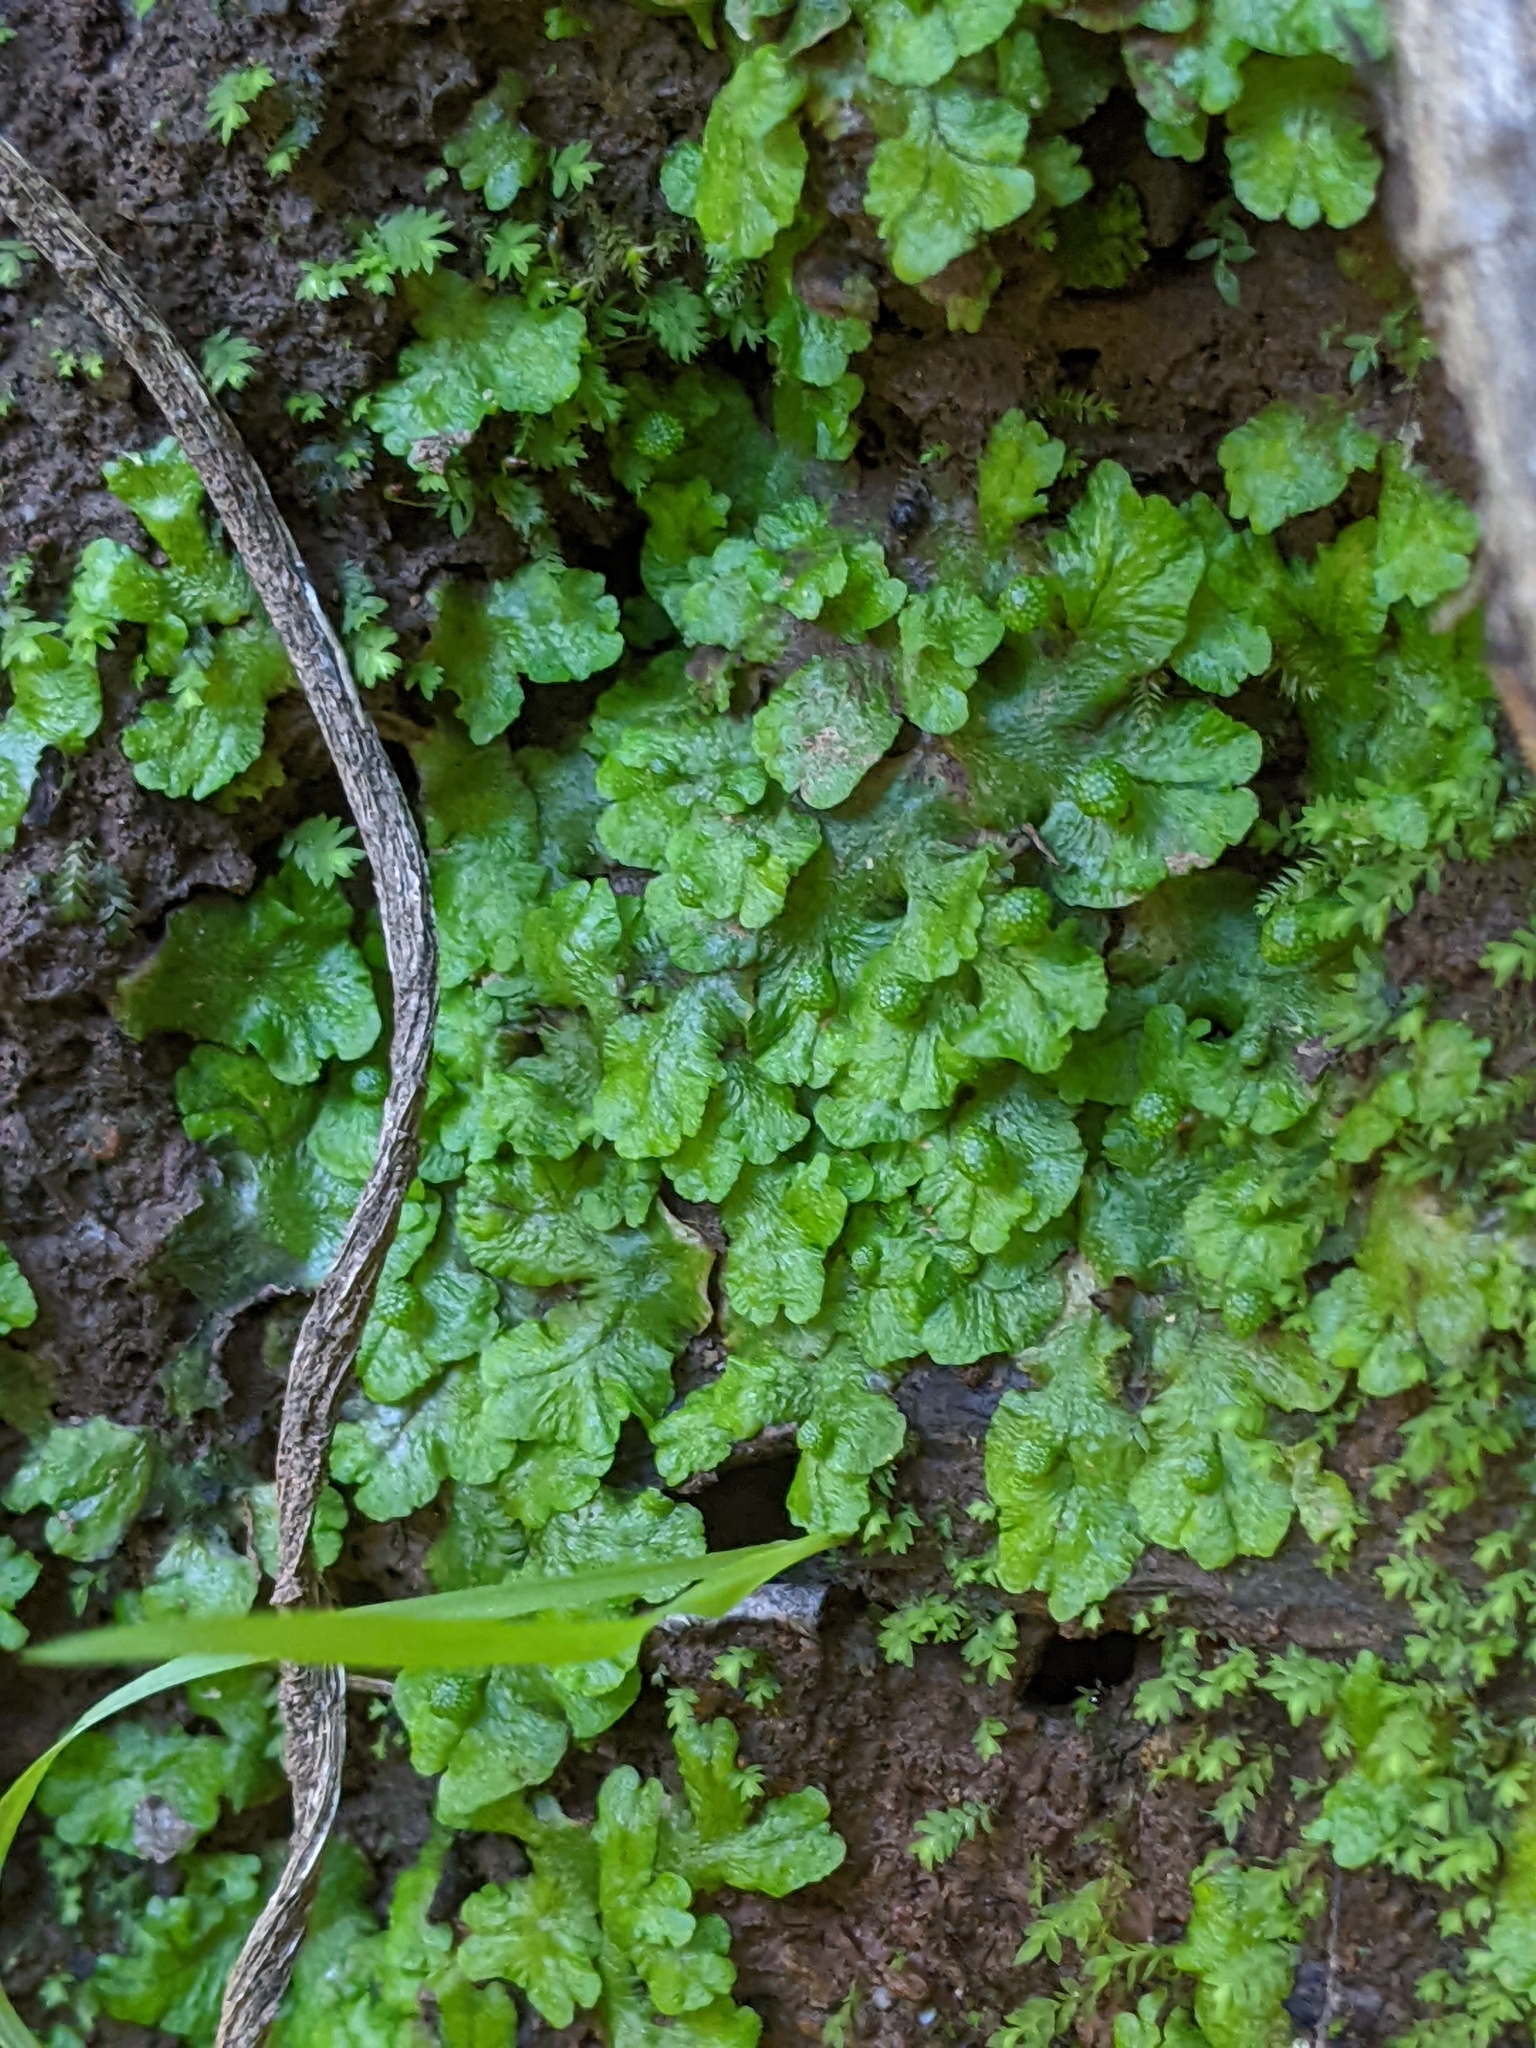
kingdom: Plantae
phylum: Marchantiophyta
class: Marchantiopsida
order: Marchantiales
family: Aytoniaceae
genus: Cryptomitrium
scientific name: Cryptomitrium tenerum
